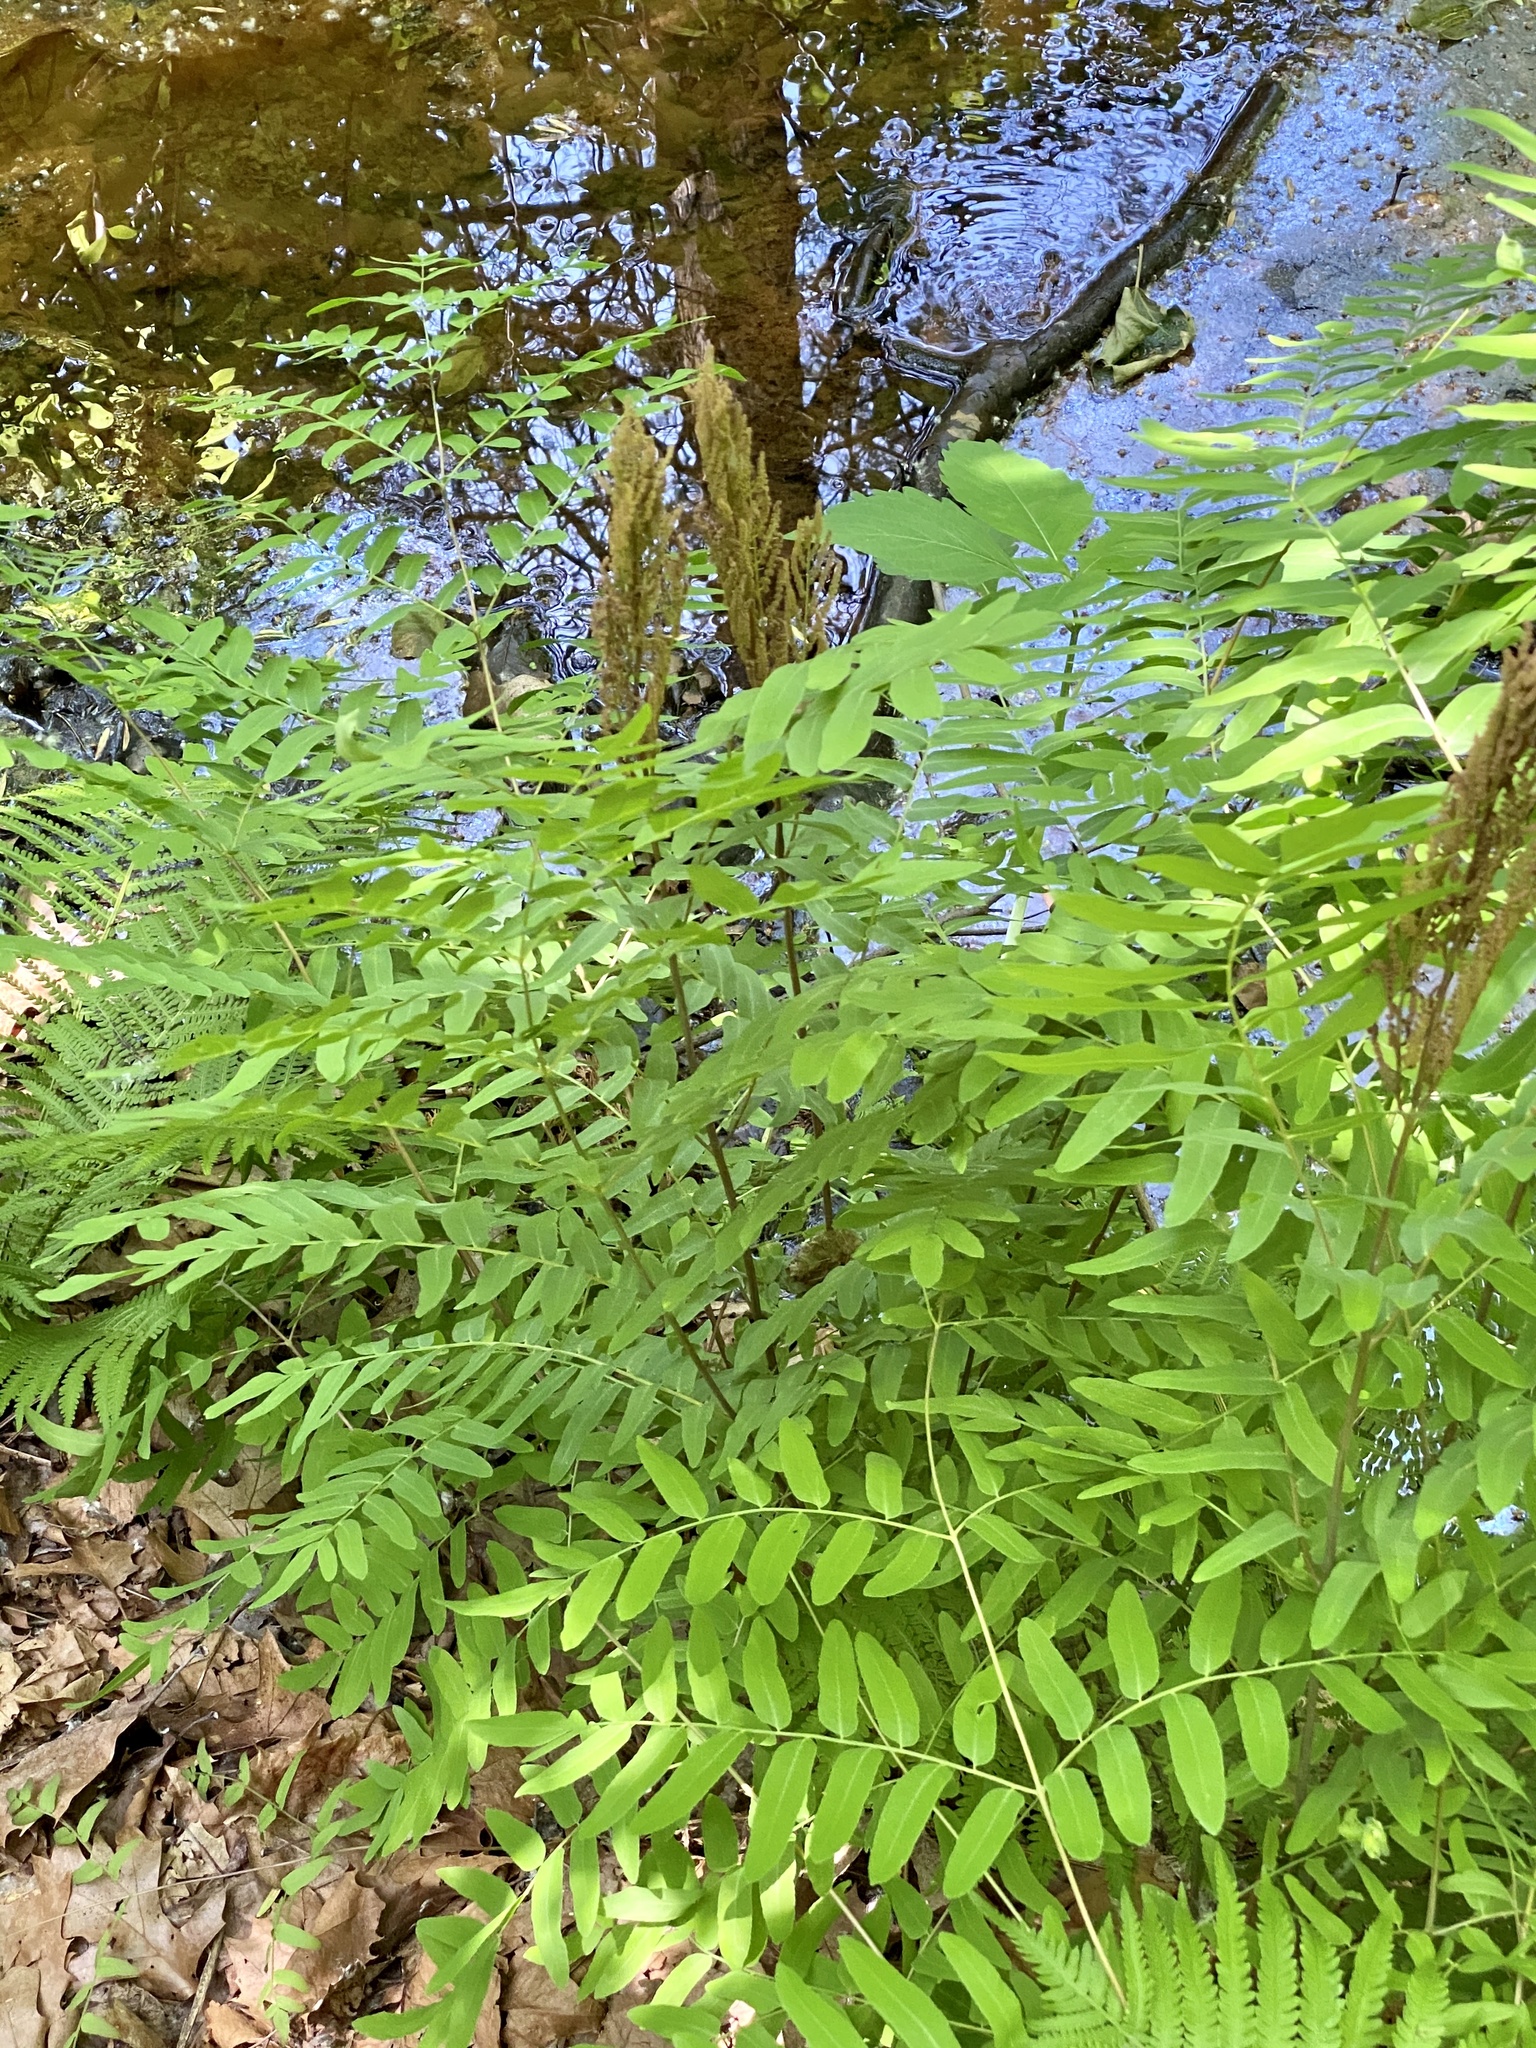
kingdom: Plantae
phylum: Tracheophyta
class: Polypodiopsida
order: Osmundales
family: Osmundaceae
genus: Osmunda
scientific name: Osmunda spectabilis
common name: American royal fern
